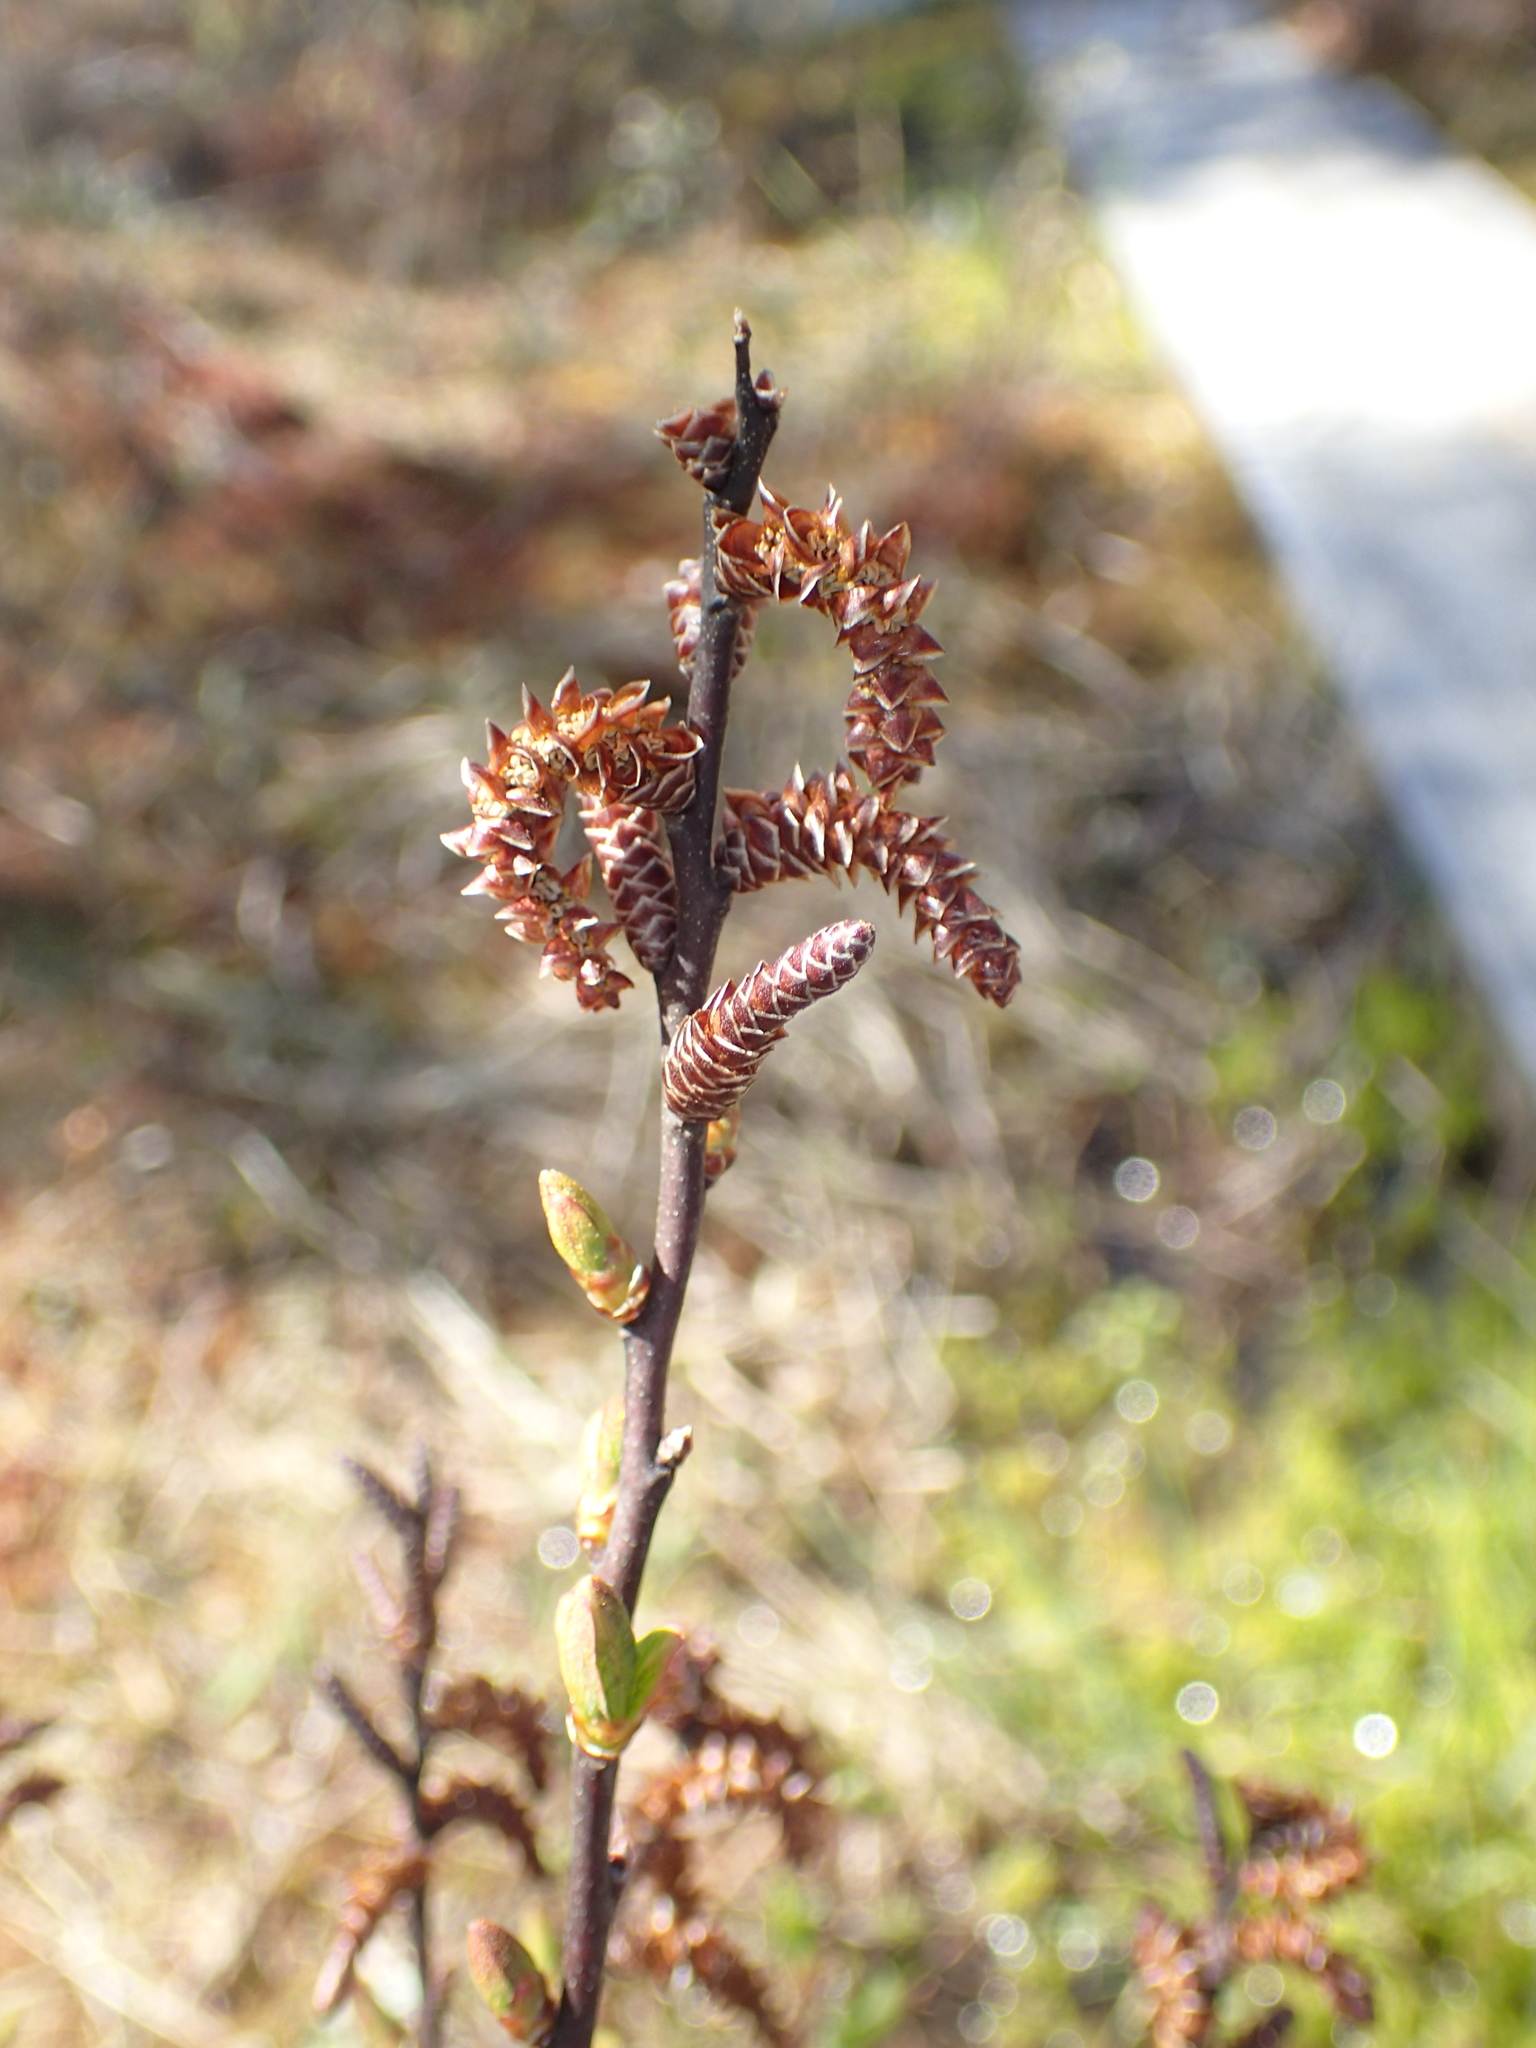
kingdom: Plantae
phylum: Tracheophyta
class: Magnoliopsida
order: Fagales
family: Myricaceae
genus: Myrica
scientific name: Myrica gale
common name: Sweet gale
